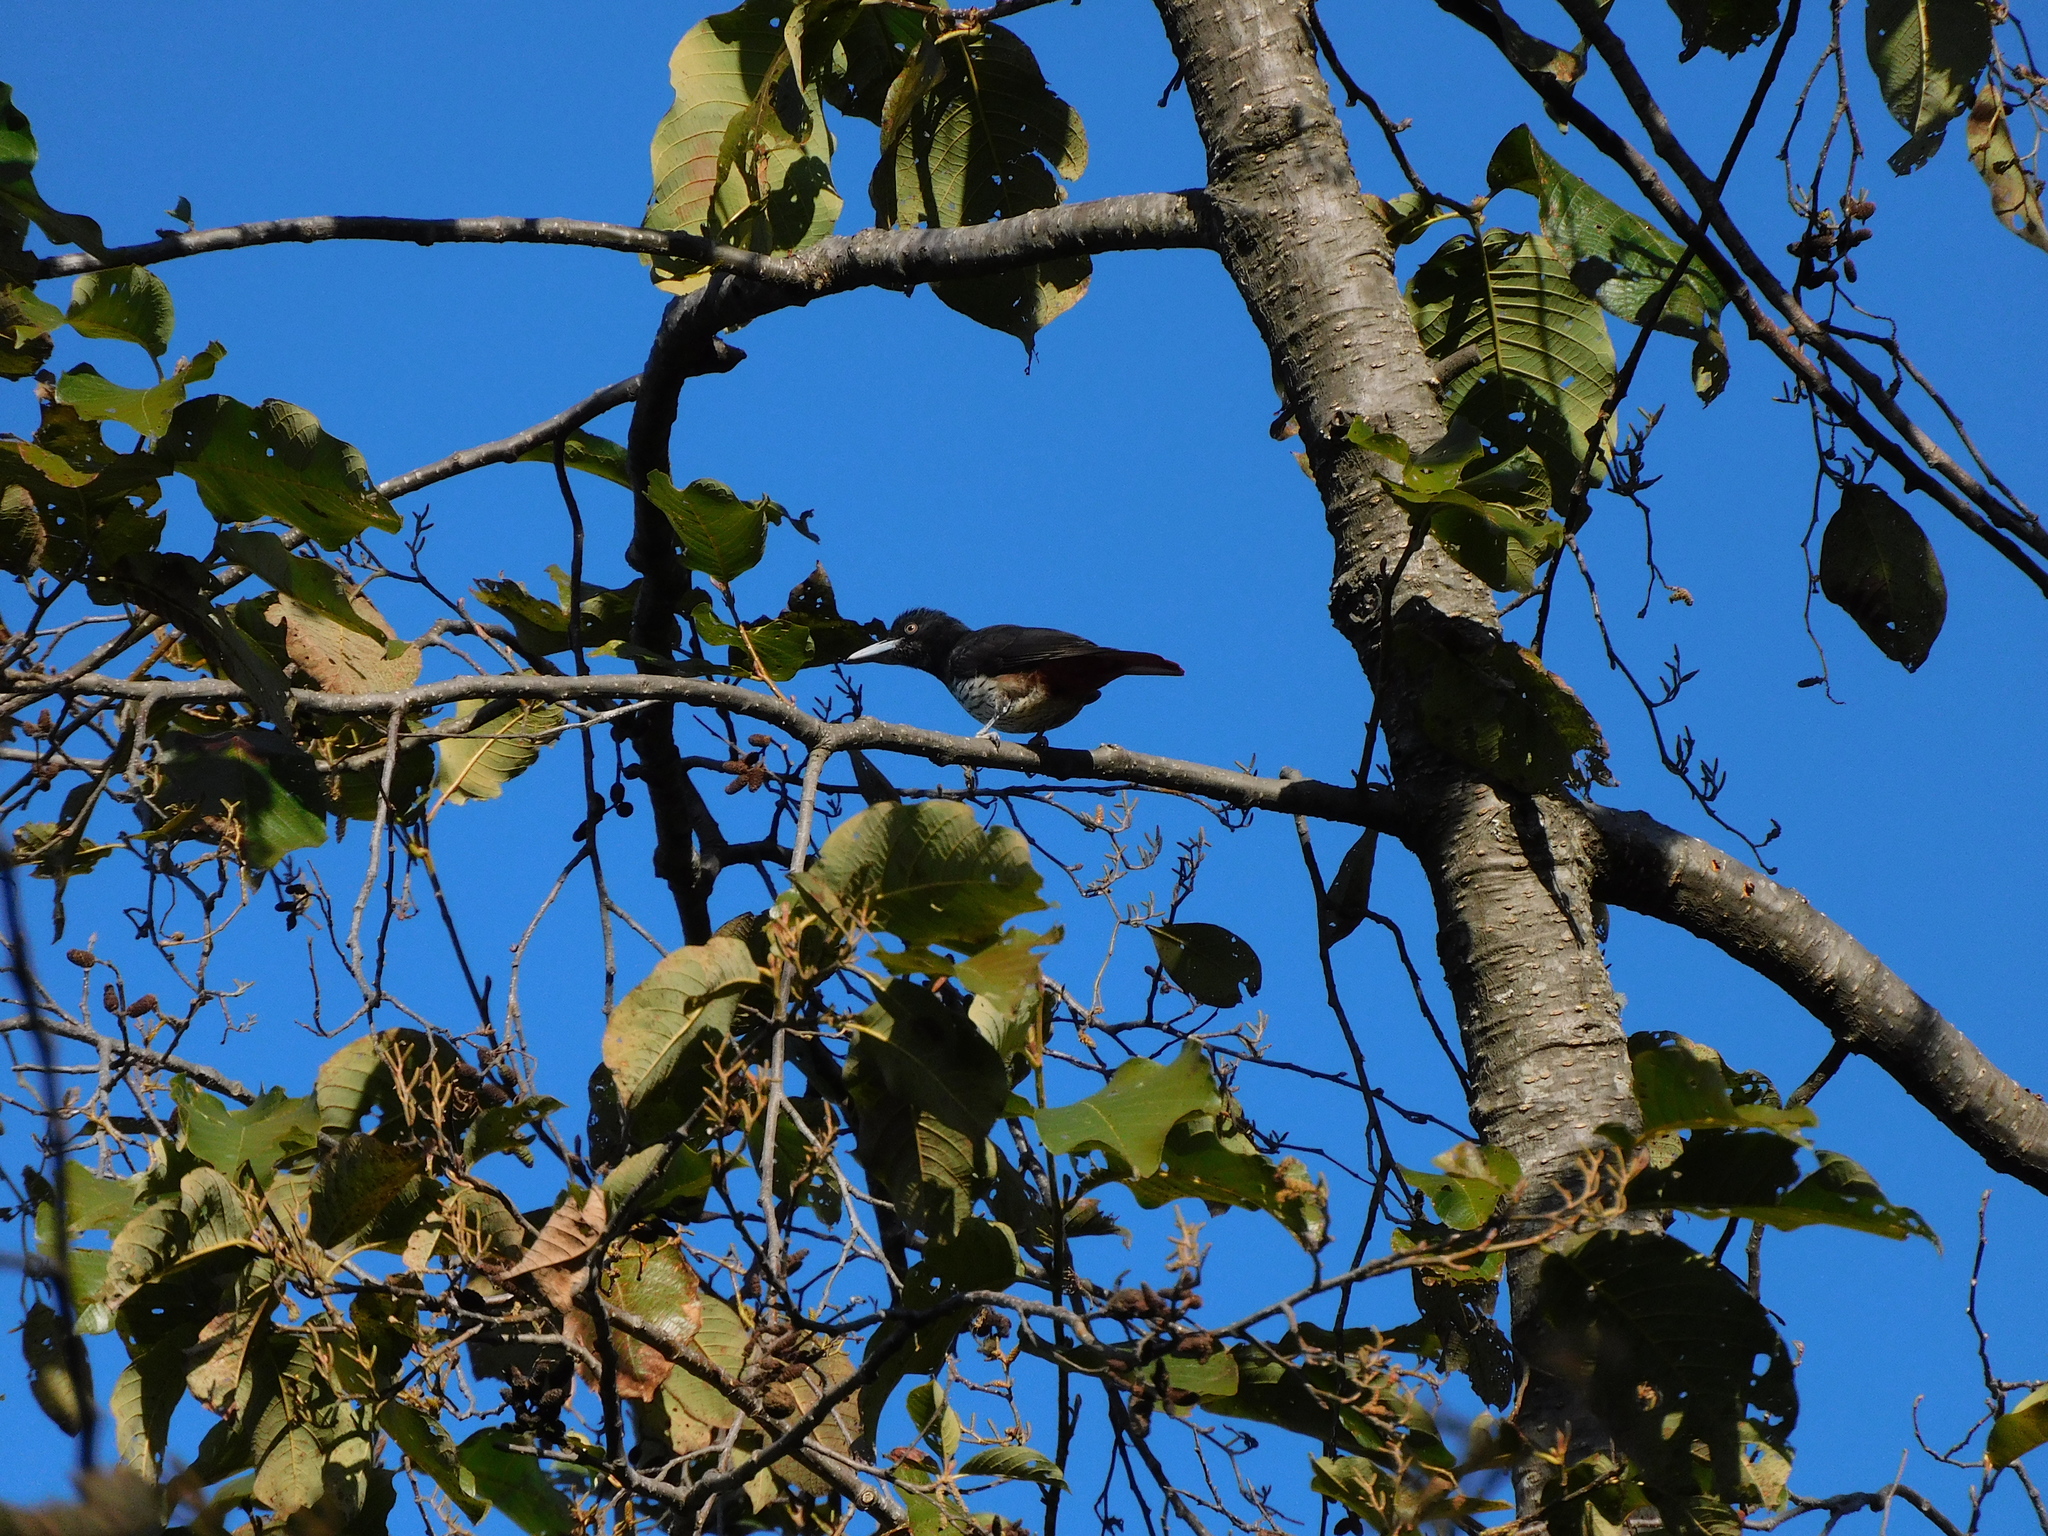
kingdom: Animalia
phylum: Chordata
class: Aves
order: Passeriformes
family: Oriolidae
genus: Oriolus
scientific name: Oriolus traillii
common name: Maroon oriole
